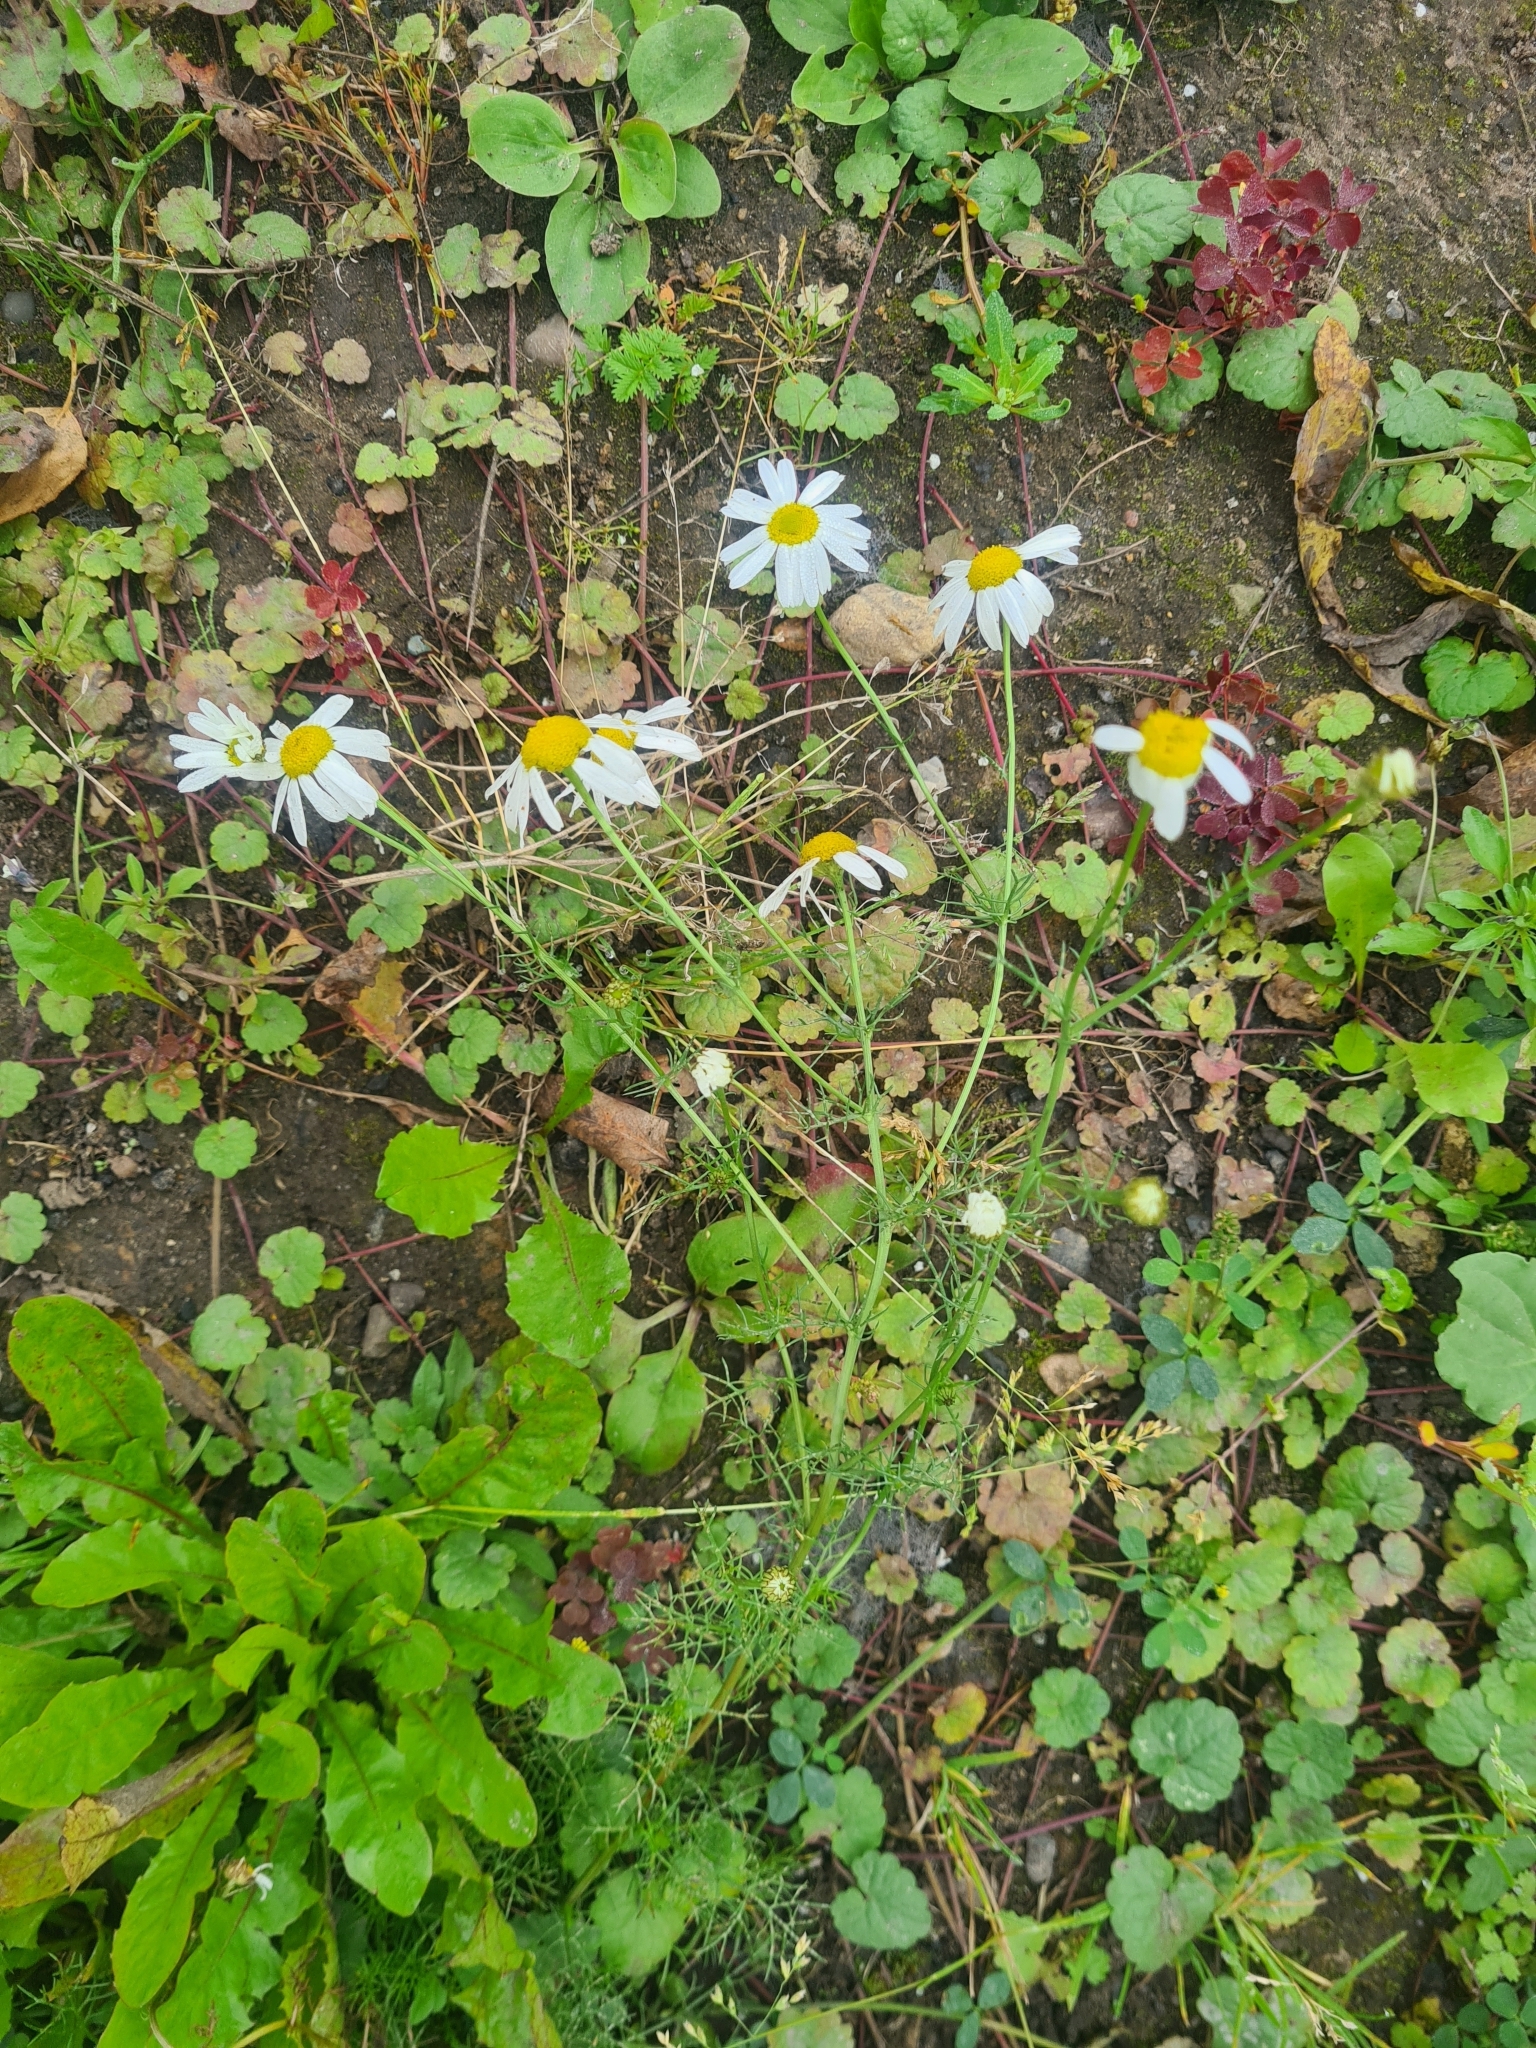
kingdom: Plantae
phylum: Tracheophyta
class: Magnoliopsida
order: Asterales
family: Asteraceae
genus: Tripleurospermum
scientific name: Tripleurospermum inodorum
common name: Scentless mayweed
